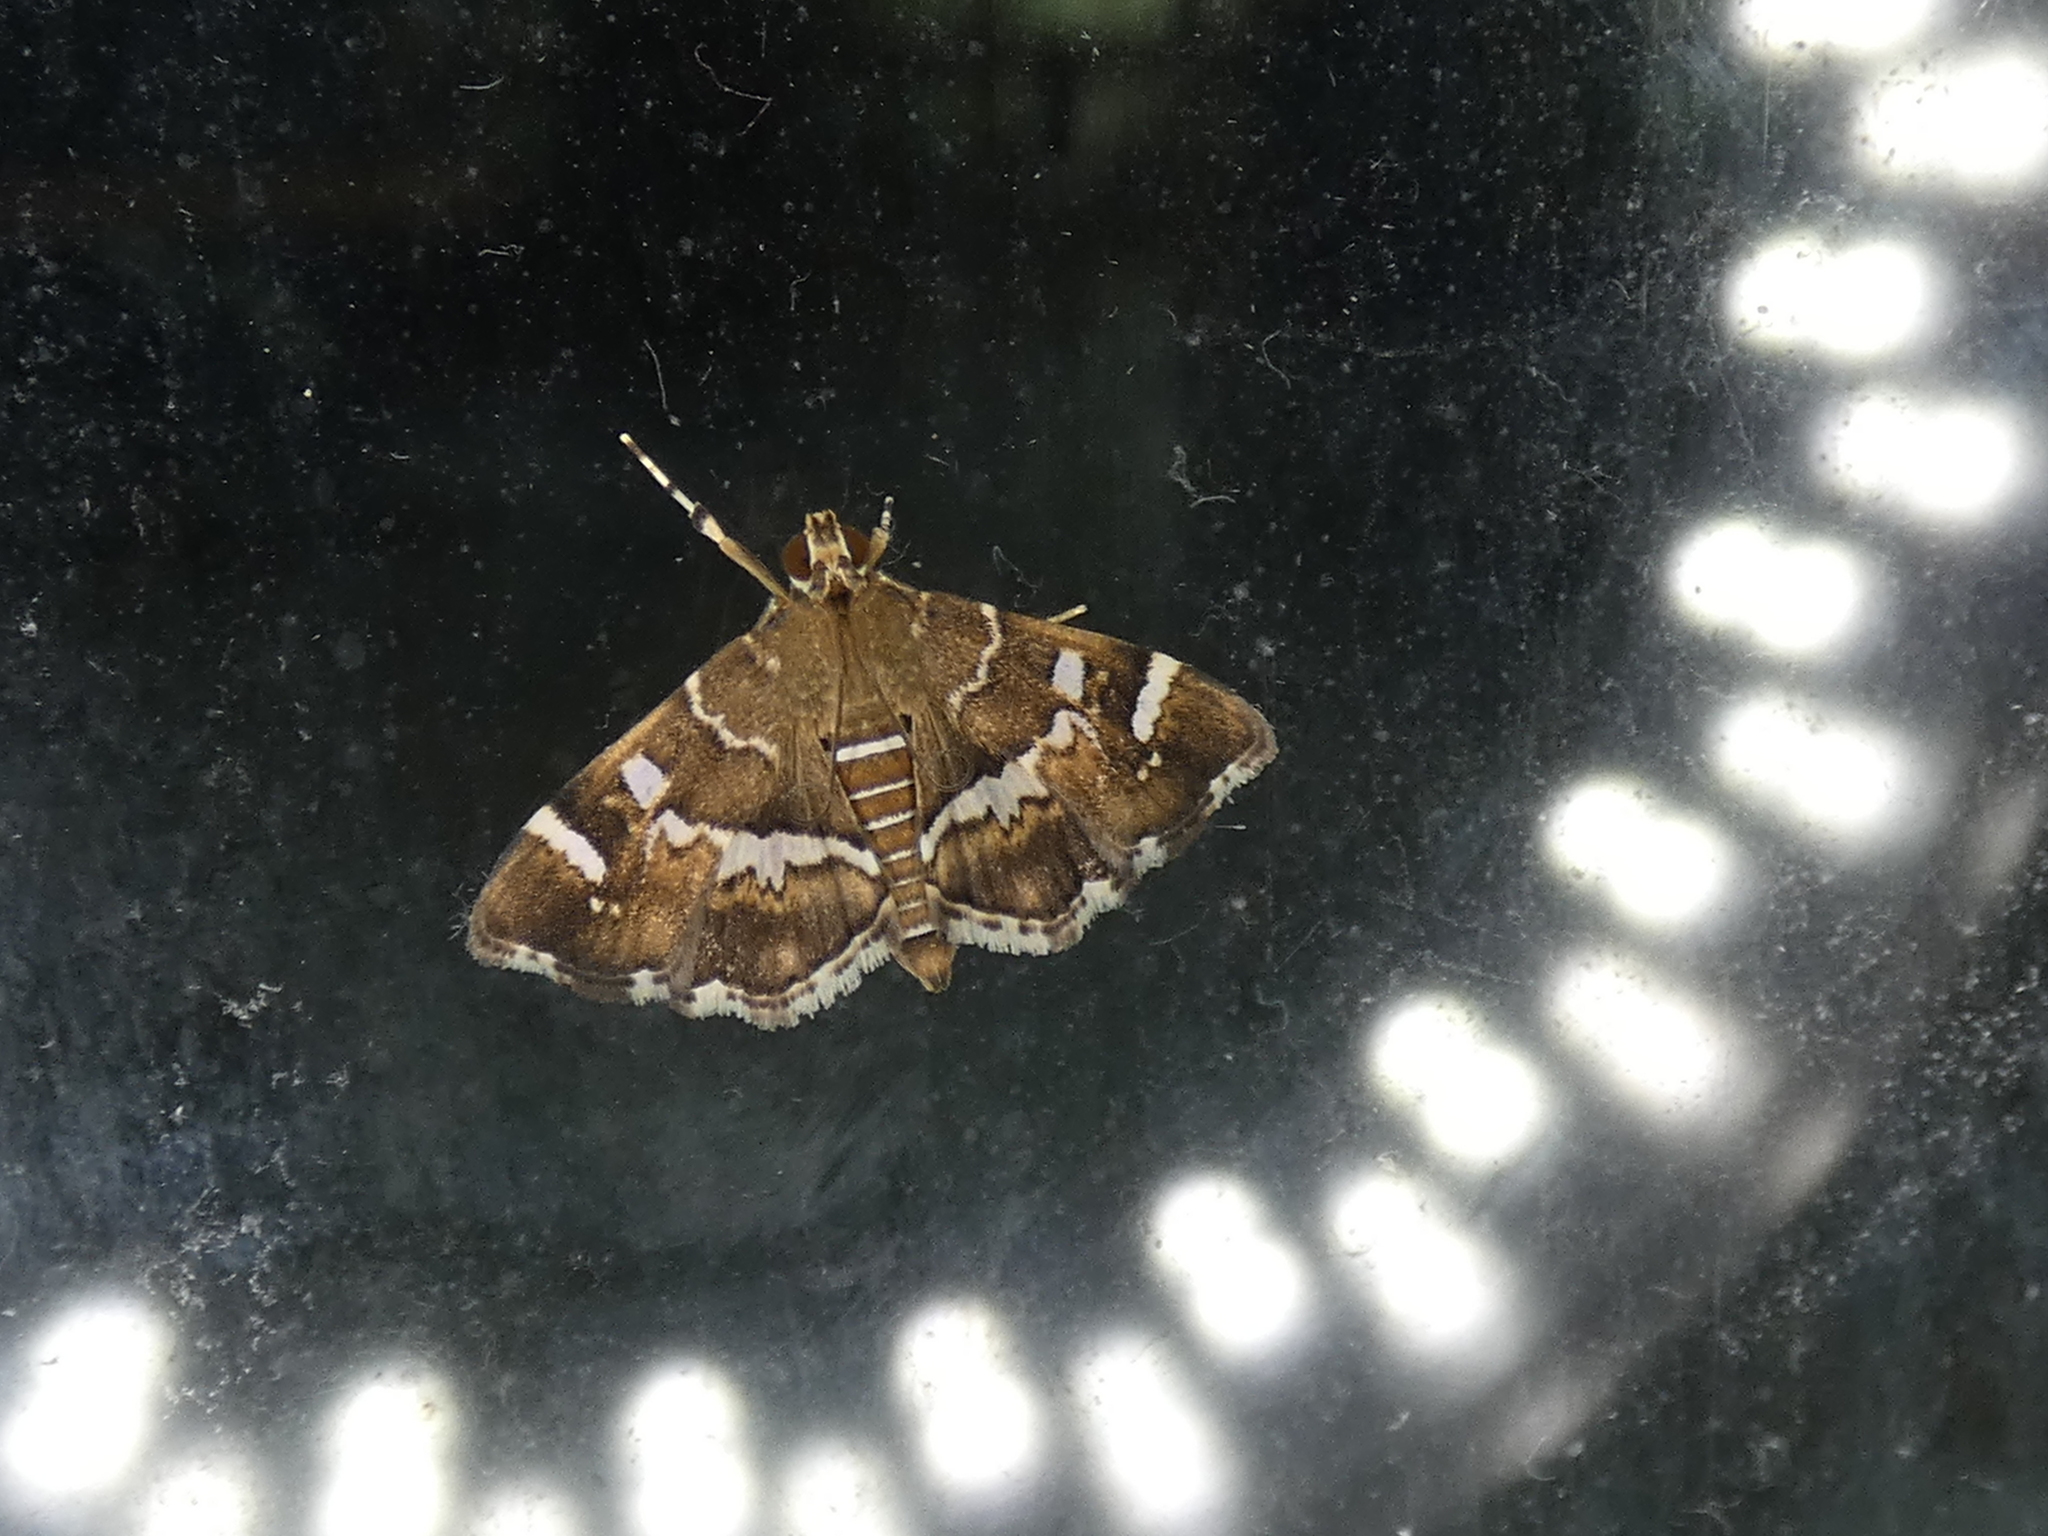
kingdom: Animalia
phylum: Arthropoda
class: Insecta
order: Lepidoptera
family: Crambidae
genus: Hymenia
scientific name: Hymenia perspectalis
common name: Spotted beet webworm
